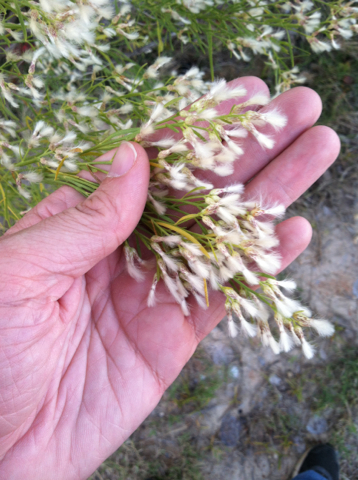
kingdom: Plantae
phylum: Tracheophyta
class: Magnoliopsida
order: Asterales
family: Asteraceae
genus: Baccharis
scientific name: Baccharis neglecta
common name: Roosevelt-weed
